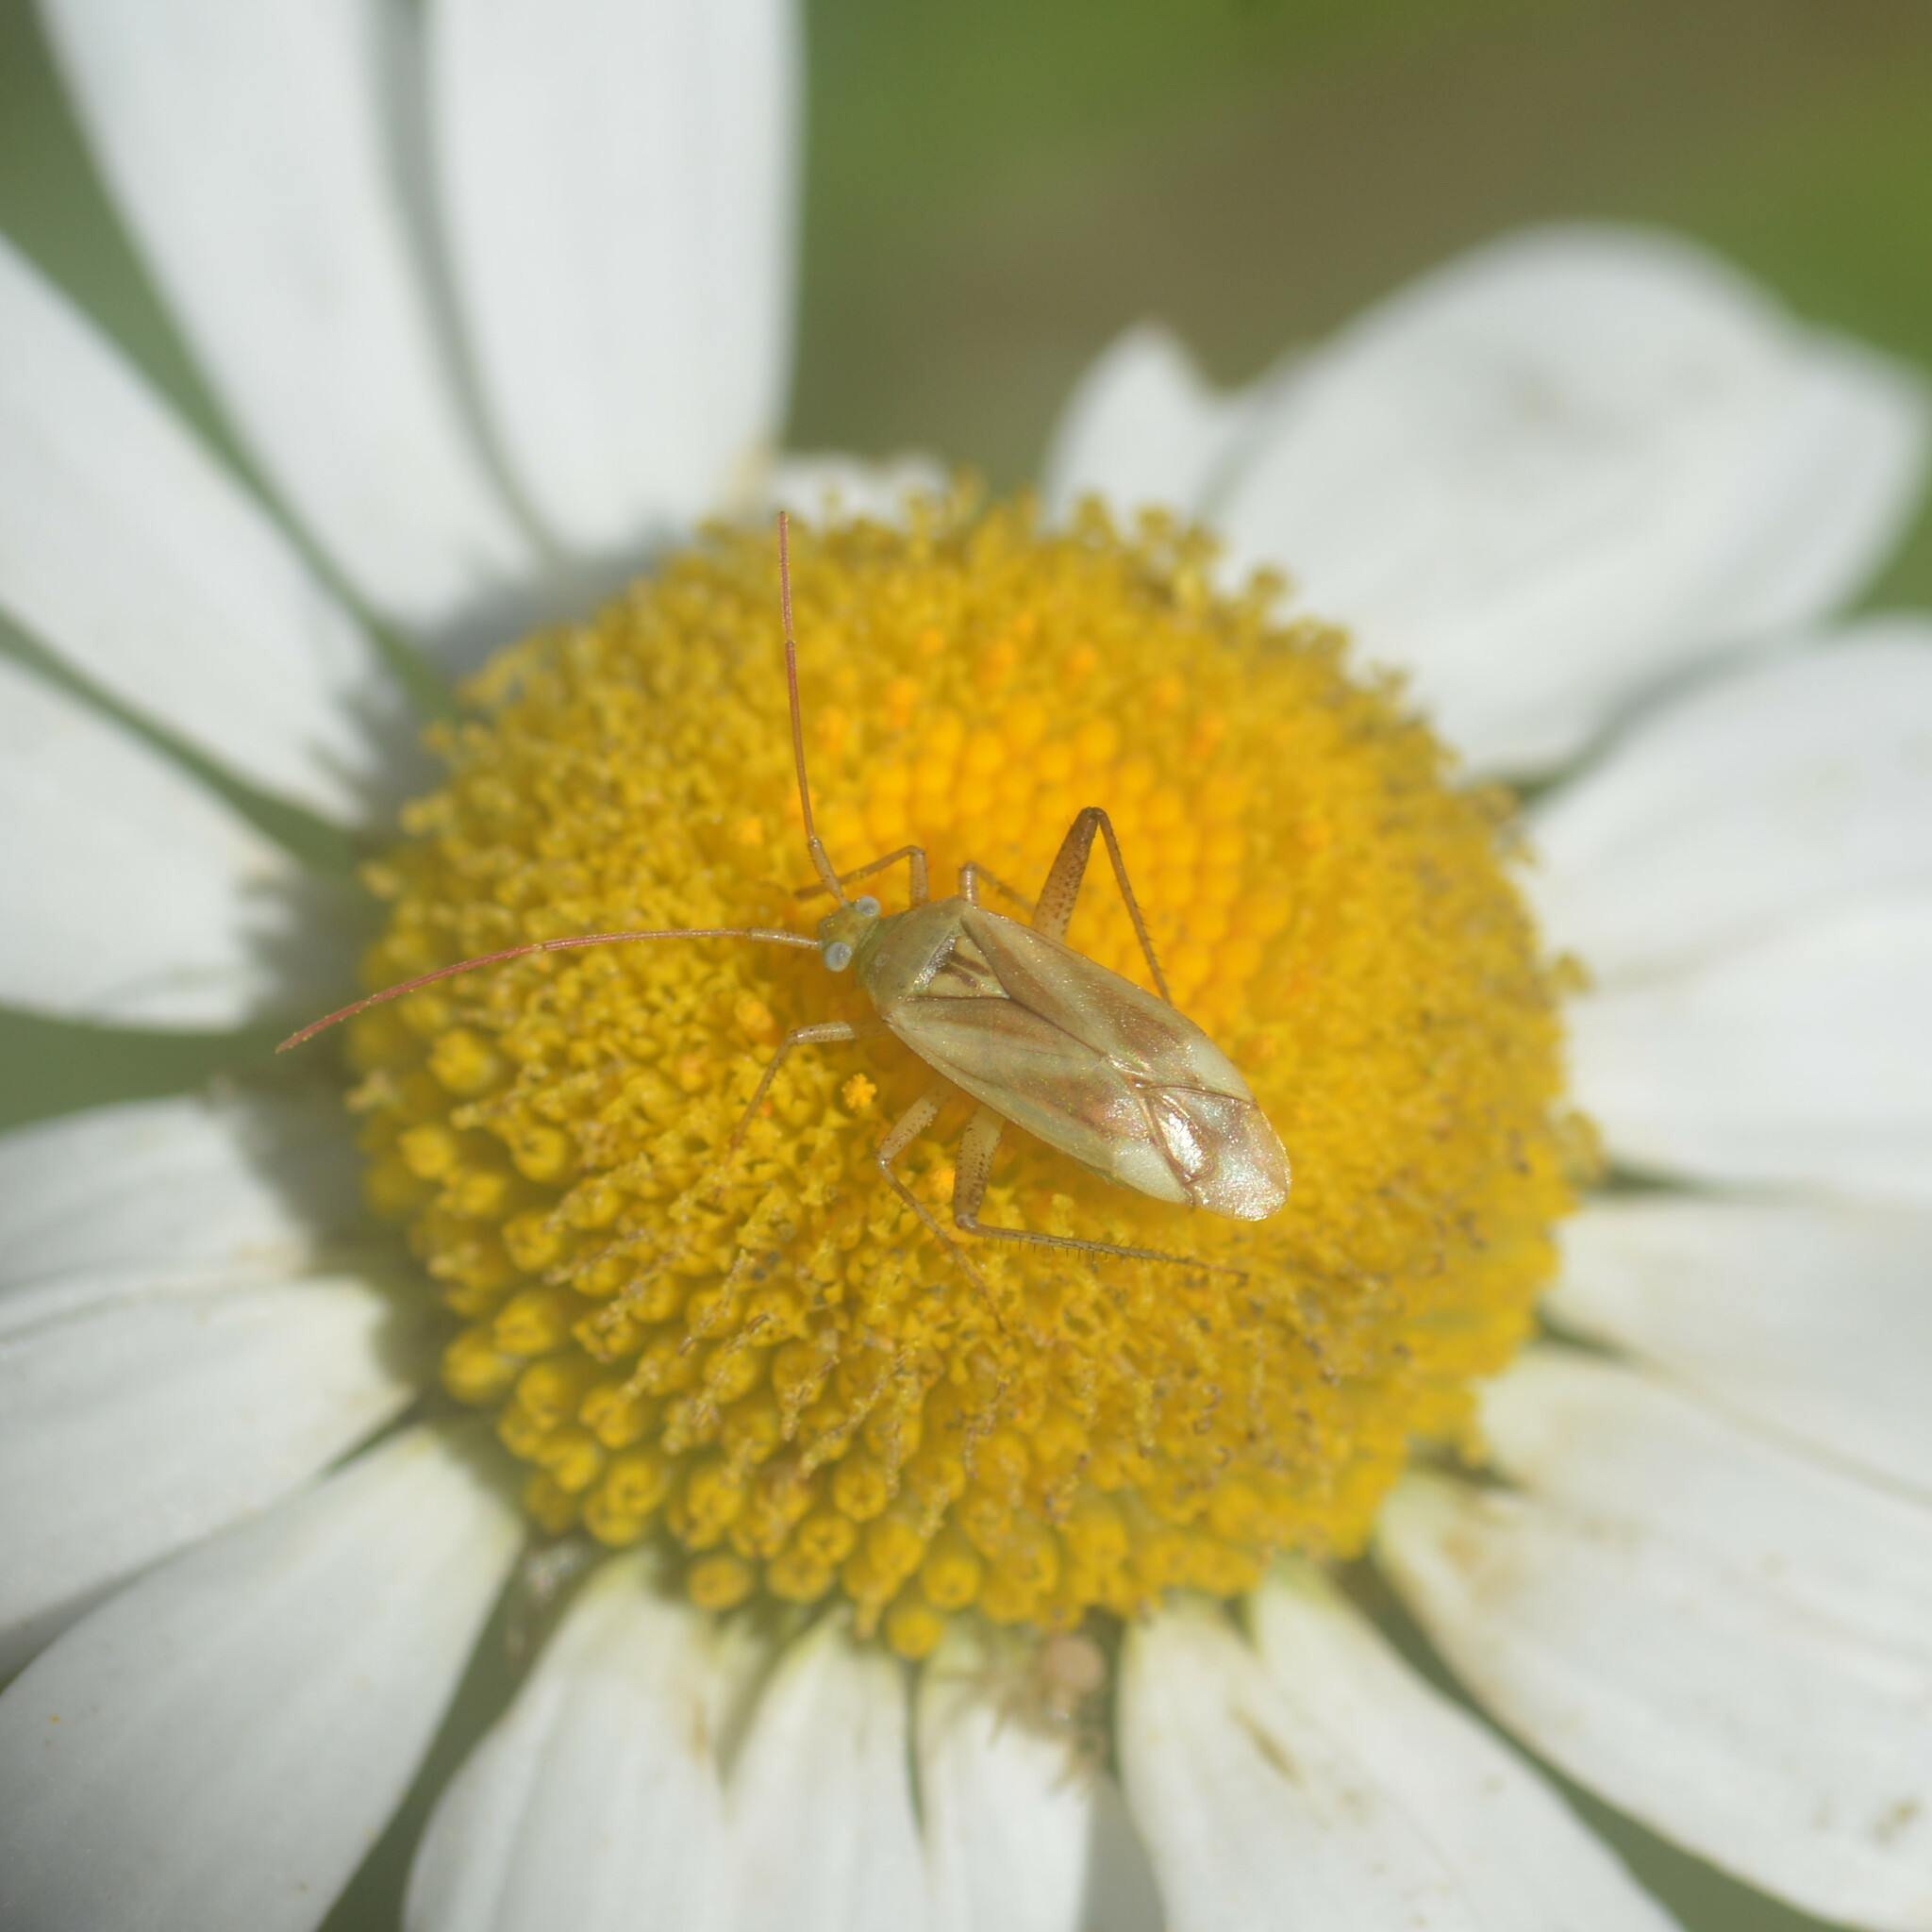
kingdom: Animalia
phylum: Arthropoda
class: Insecta
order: Hemiptera
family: Miridae
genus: Adelphocoris
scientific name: Adelphocoris lineolatus
